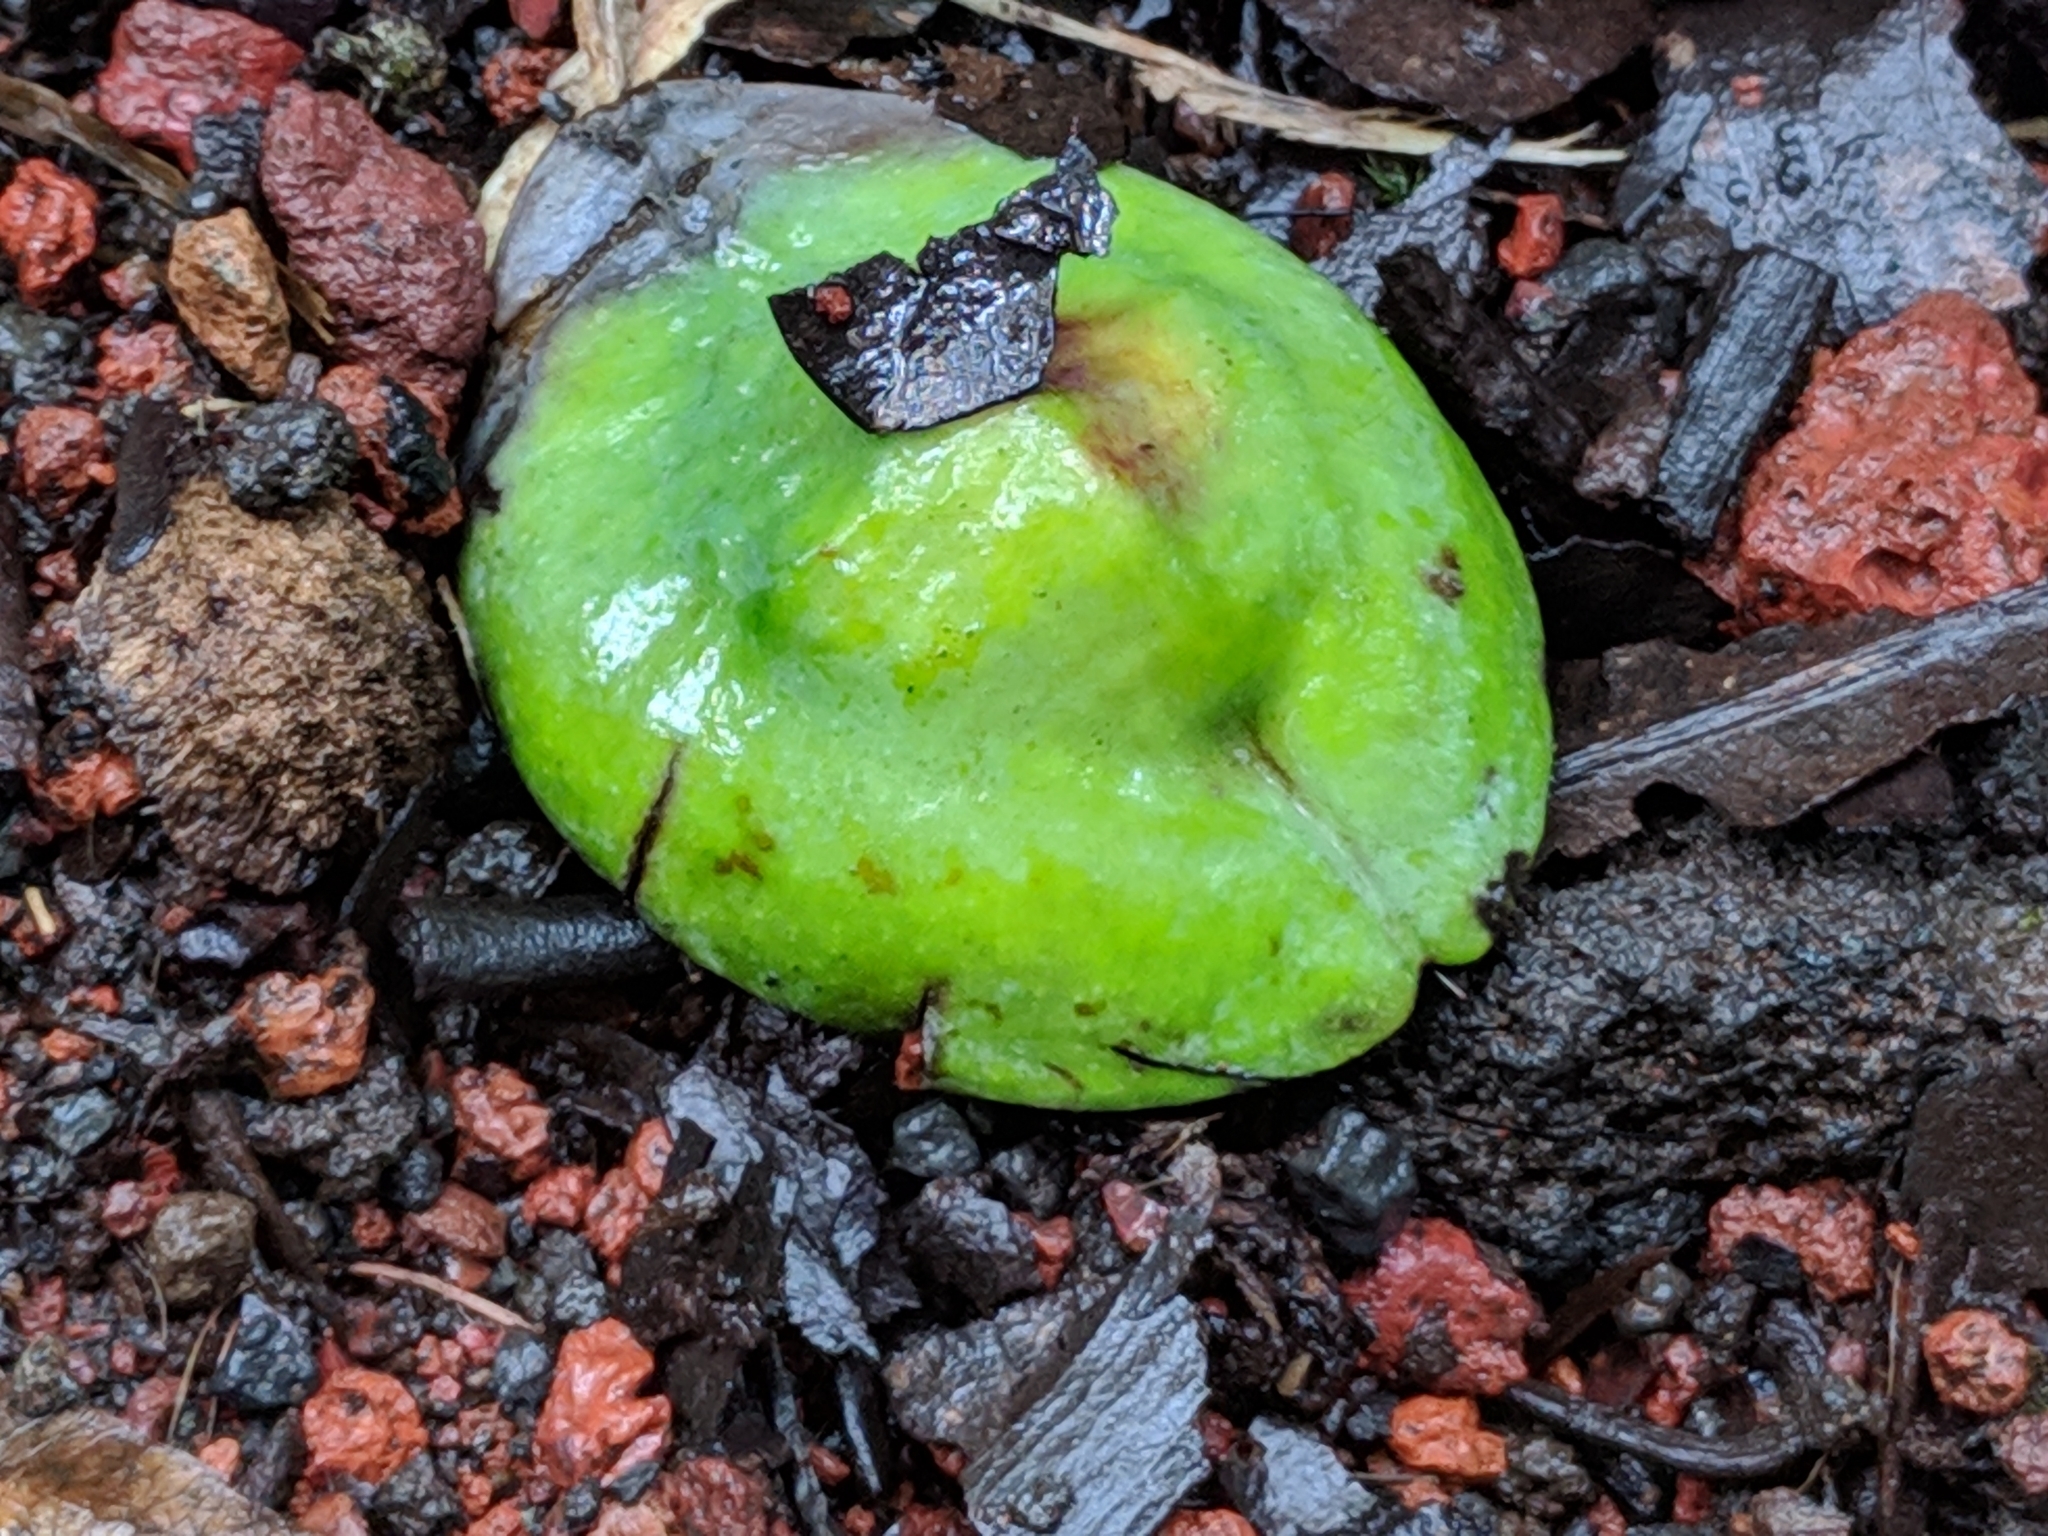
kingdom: Plantae
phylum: Tracheophyta
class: Magnoliopsida
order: Myrtales
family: Combretaceae
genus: Terminalia
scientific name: Terminalia bentzoe
